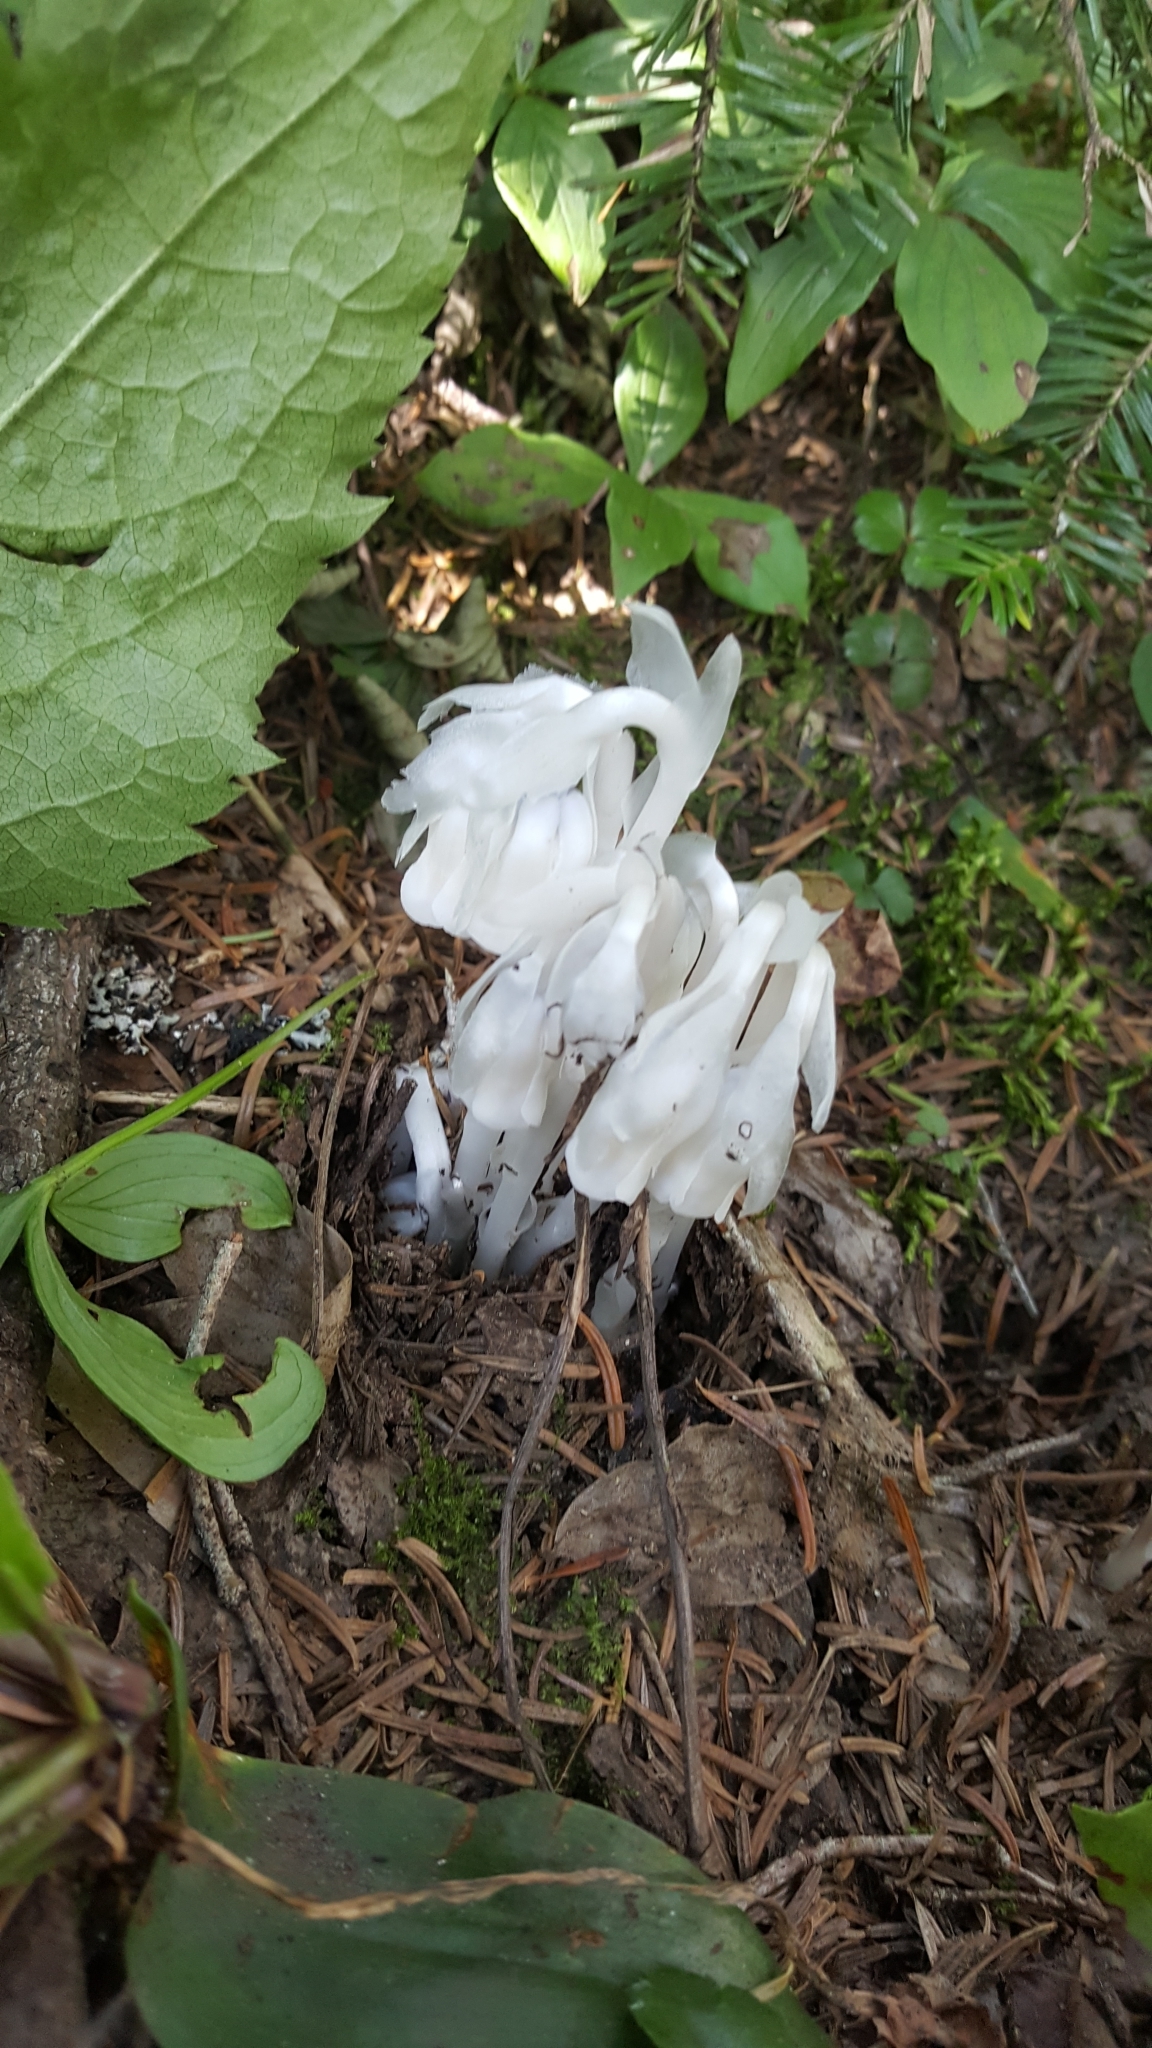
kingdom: Plantae
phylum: Tracheophyta
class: Magnoliopsida
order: Ericales
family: Ericaceae
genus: Monotropa
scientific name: Monotropa uniflora
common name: Convulsion root
